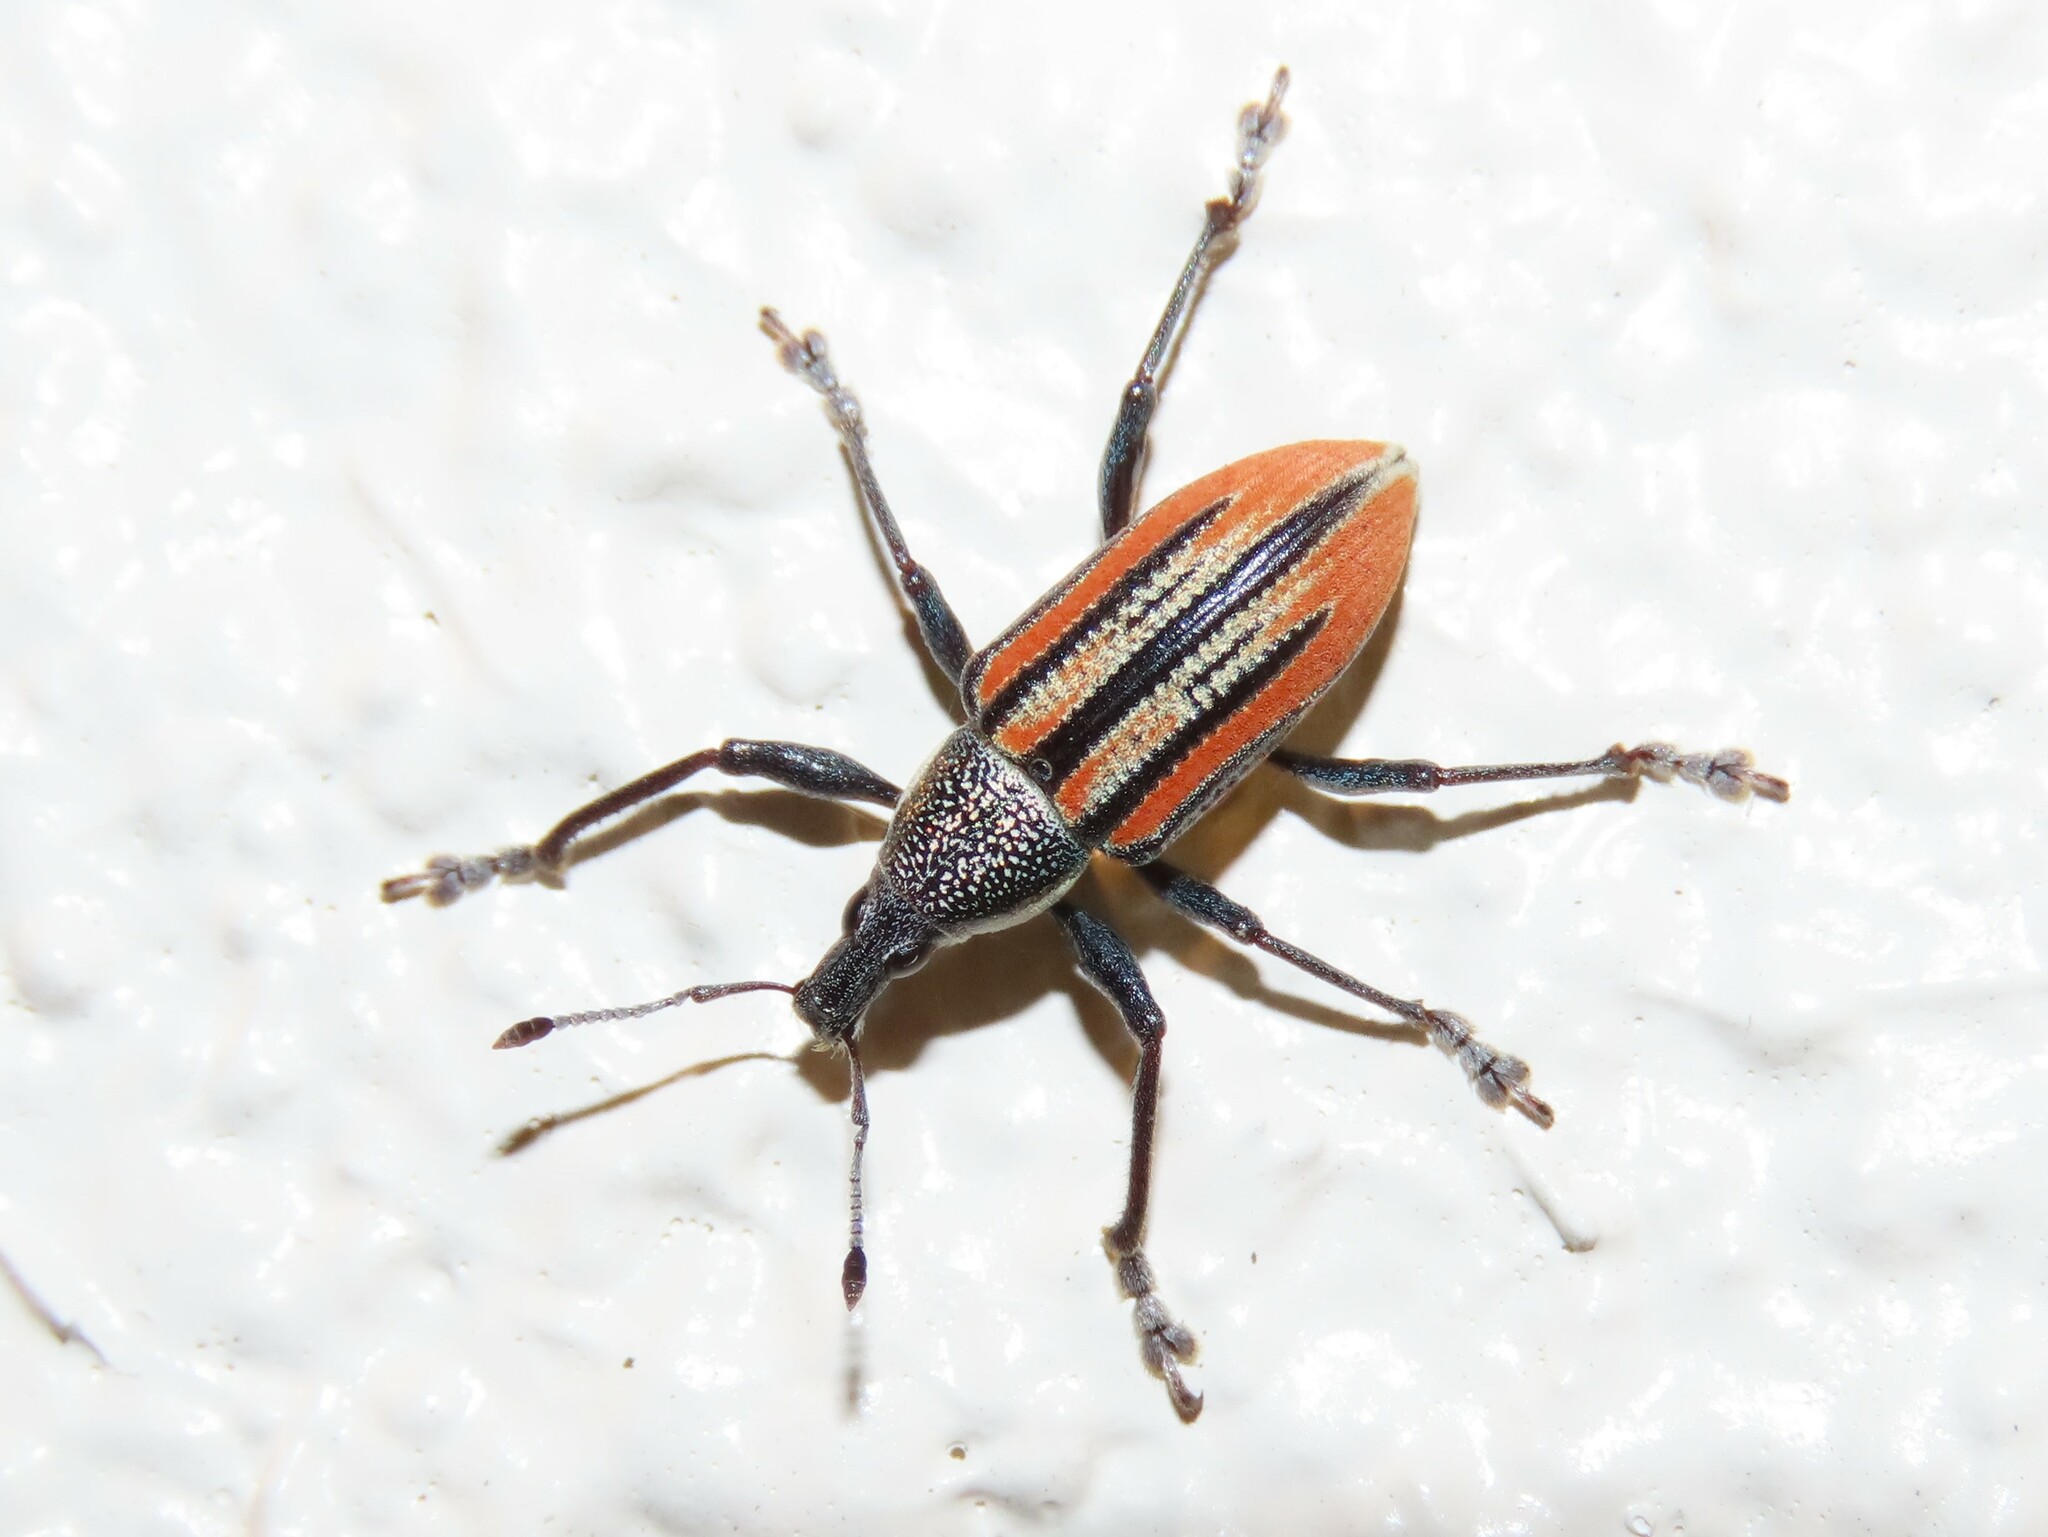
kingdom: Animalia
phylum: Arthropoda
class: Insecta
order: Coleoptera
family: Curculionidae
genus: Diaprepes
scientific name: Diaprepes abbreviatus
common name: Root weevil
